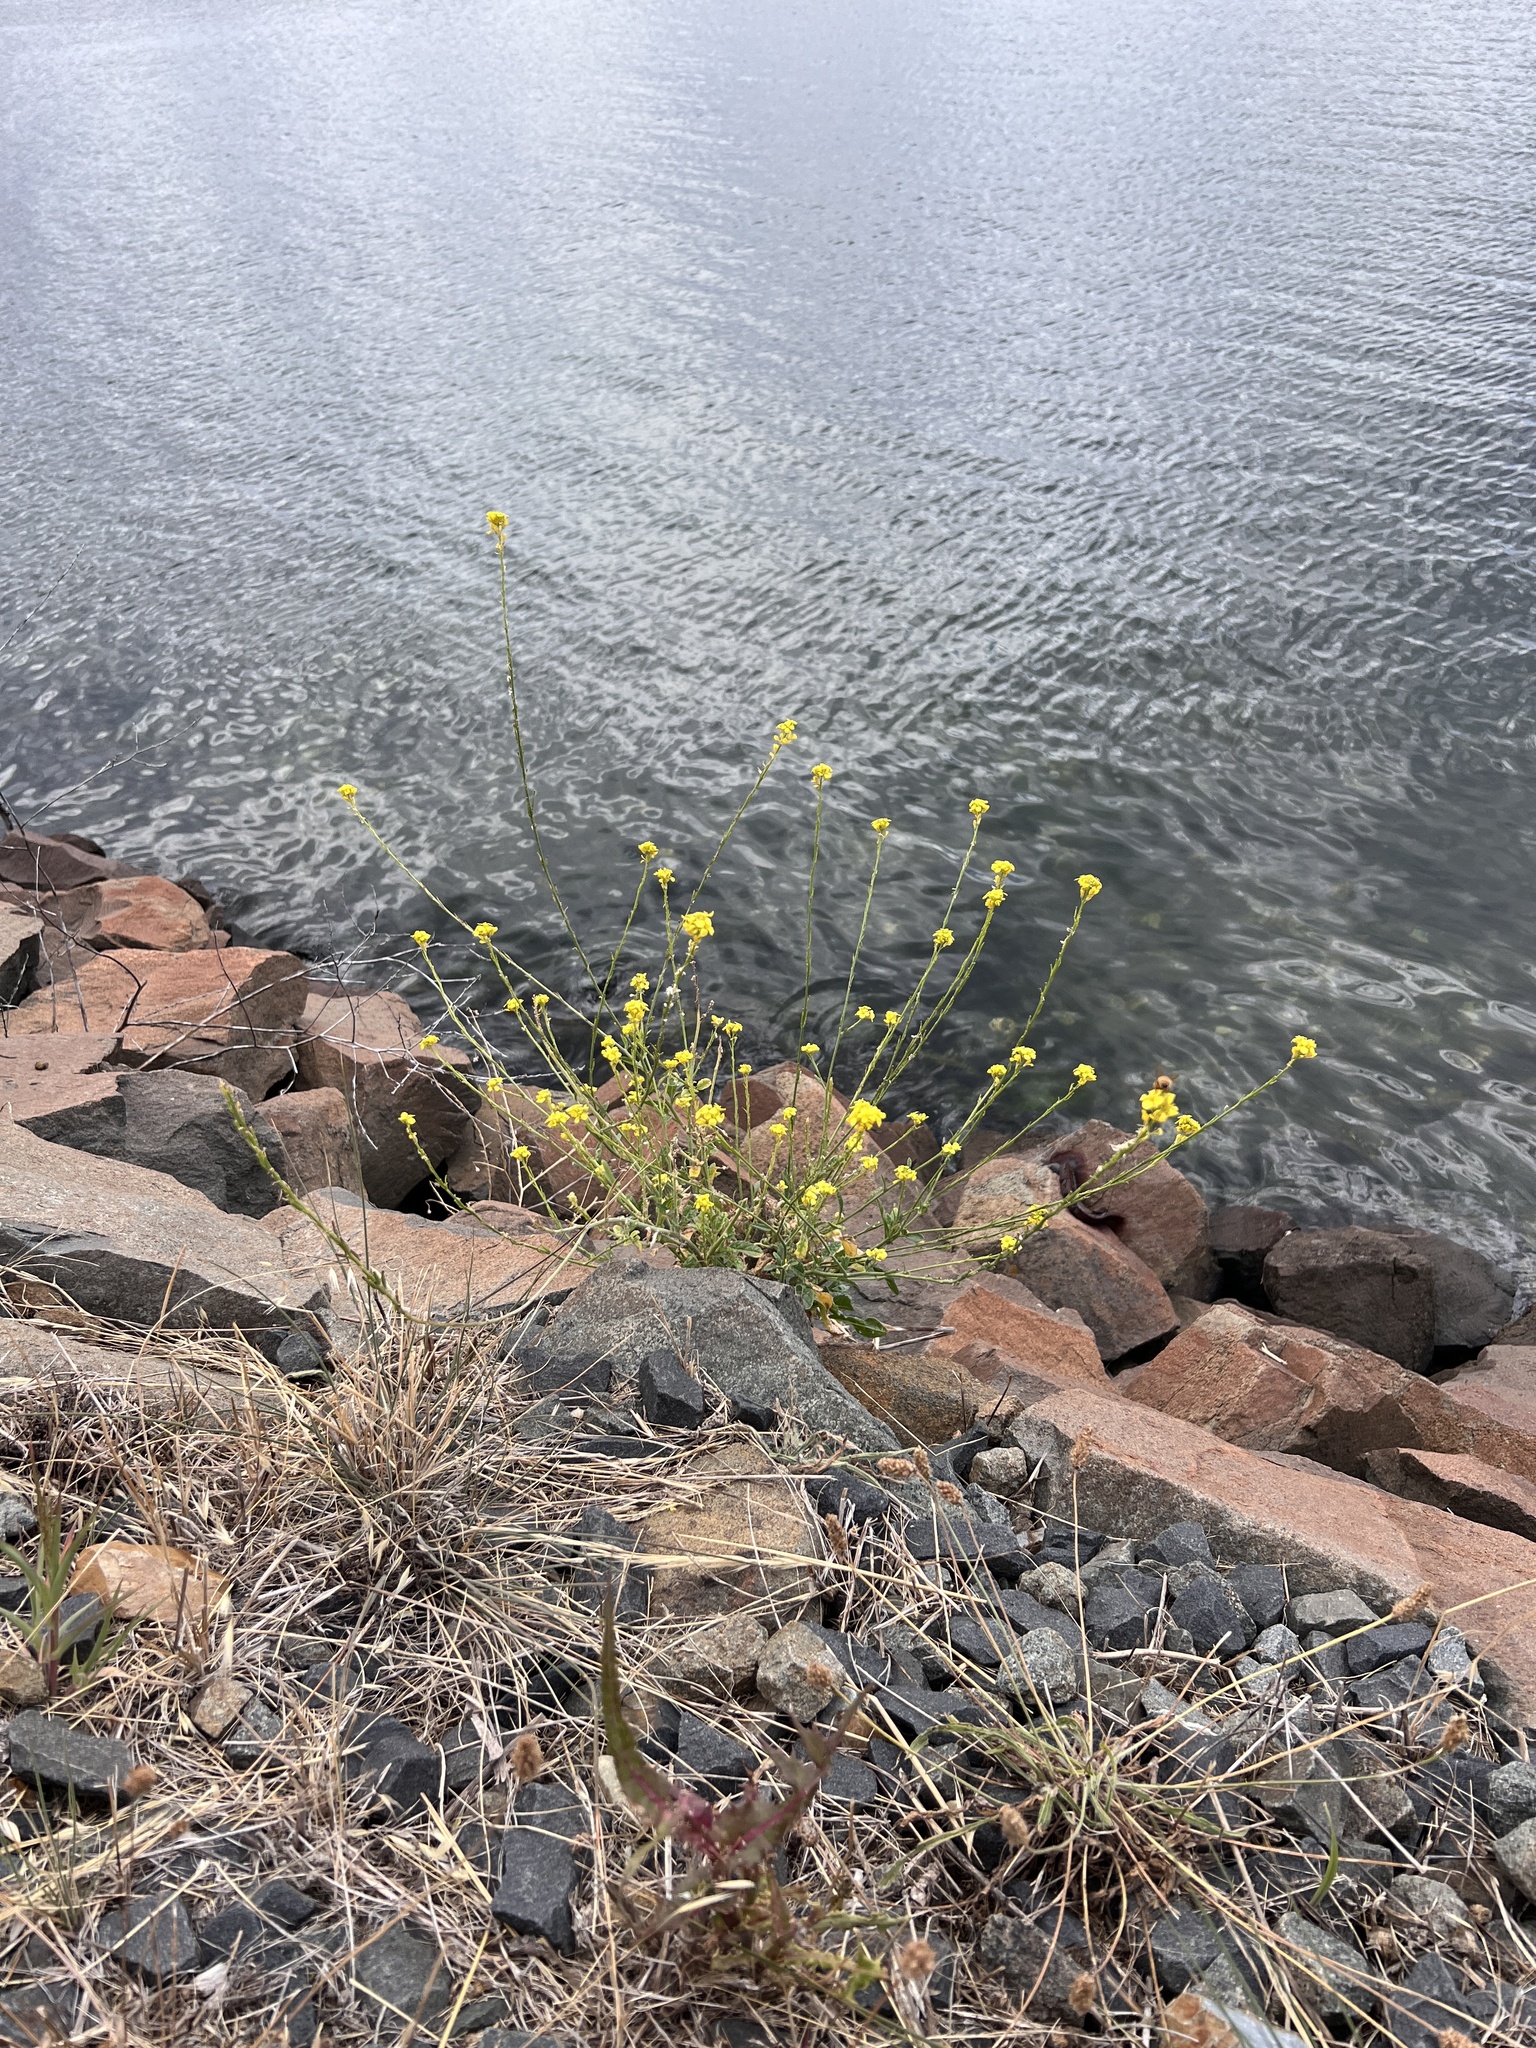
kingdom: Plantae
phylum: Tracheophyta
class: Magnoliopsida
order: Brassicales
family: Brassicaceae
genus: Hirschfeldia
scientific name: Hirschfeldia incana
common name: Hoary mustard
